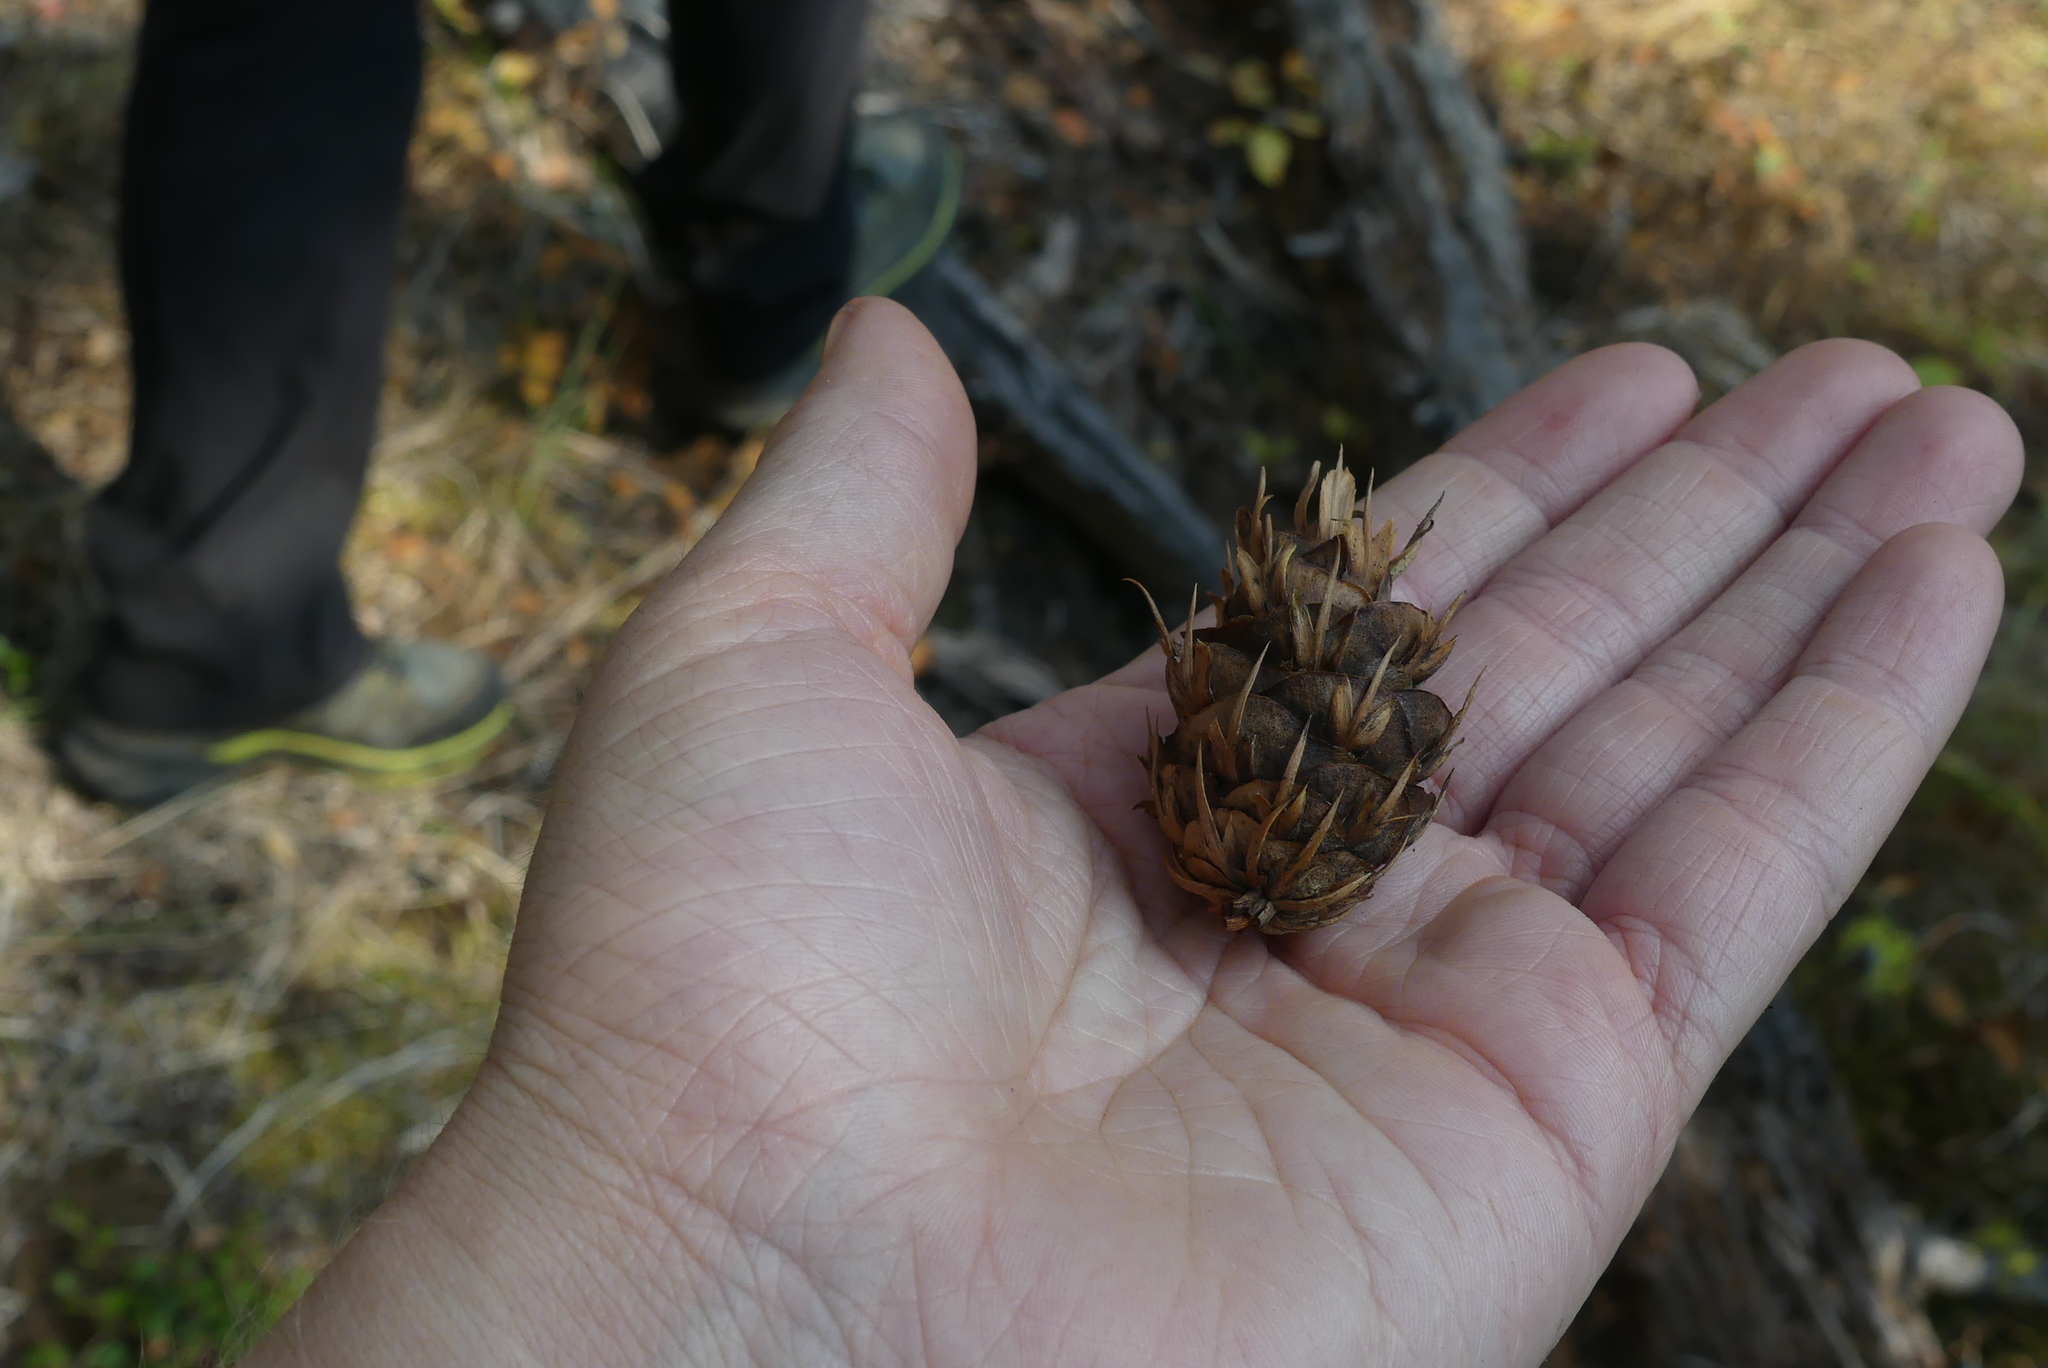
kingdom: Plantae
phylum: Tracheophyta
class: Pinopsida
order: Pinales
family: Pinaceae
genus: Pseudotsuga
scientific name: Pseudotsuga menziesii
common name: Douglas fir
